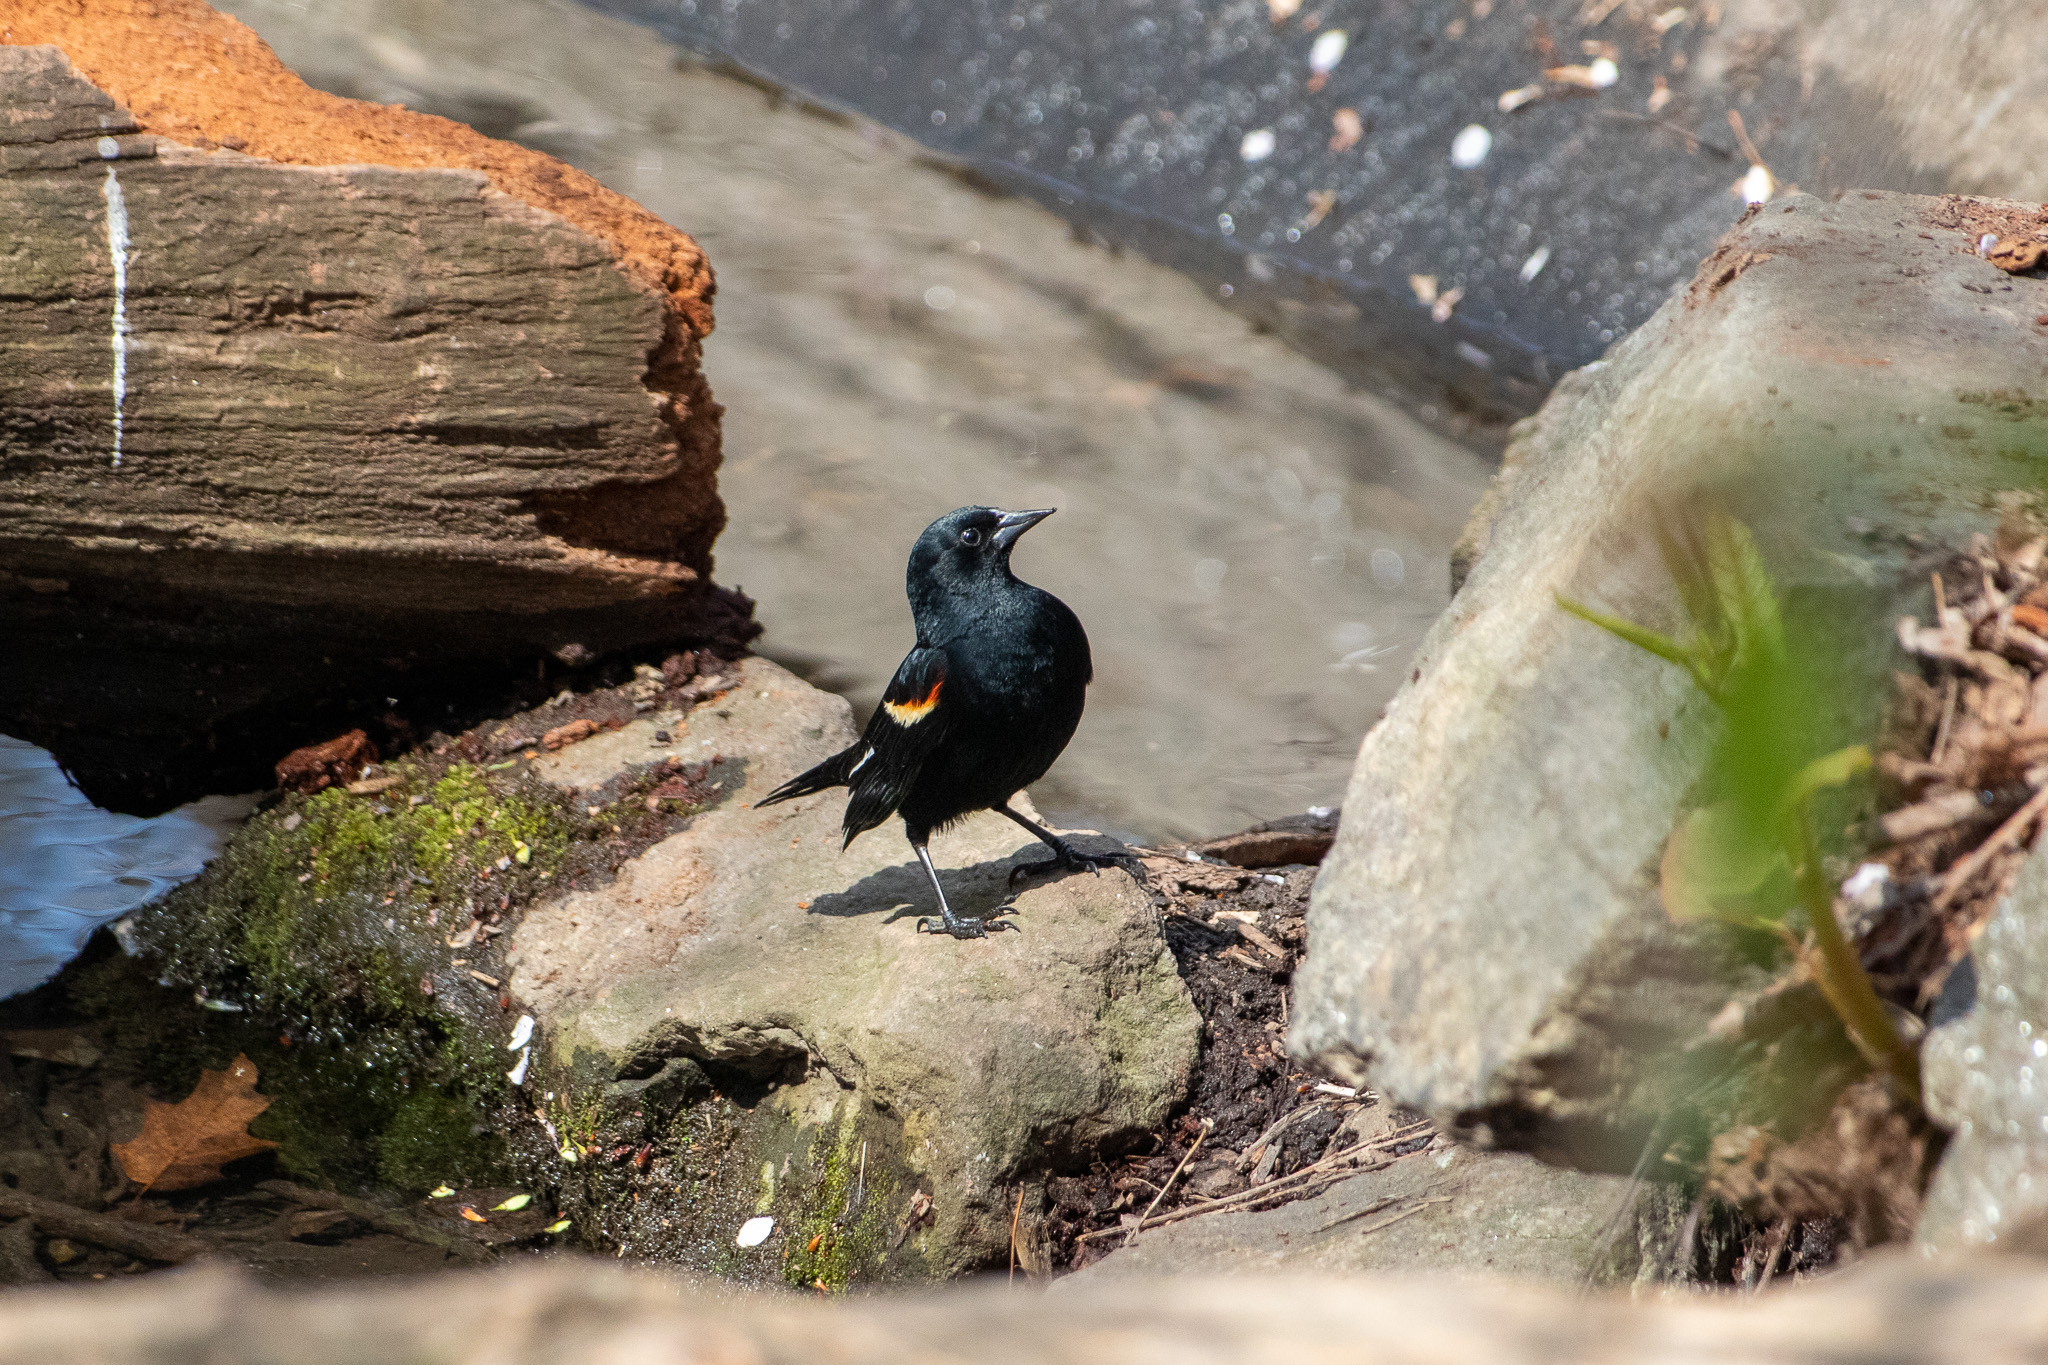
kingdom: Animalia
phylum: Chordata
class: Aves
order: Passeriformes
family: Icteridae
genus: Agelaius
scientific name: Agelaius phoeniceus
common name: Red-winged blackbird
